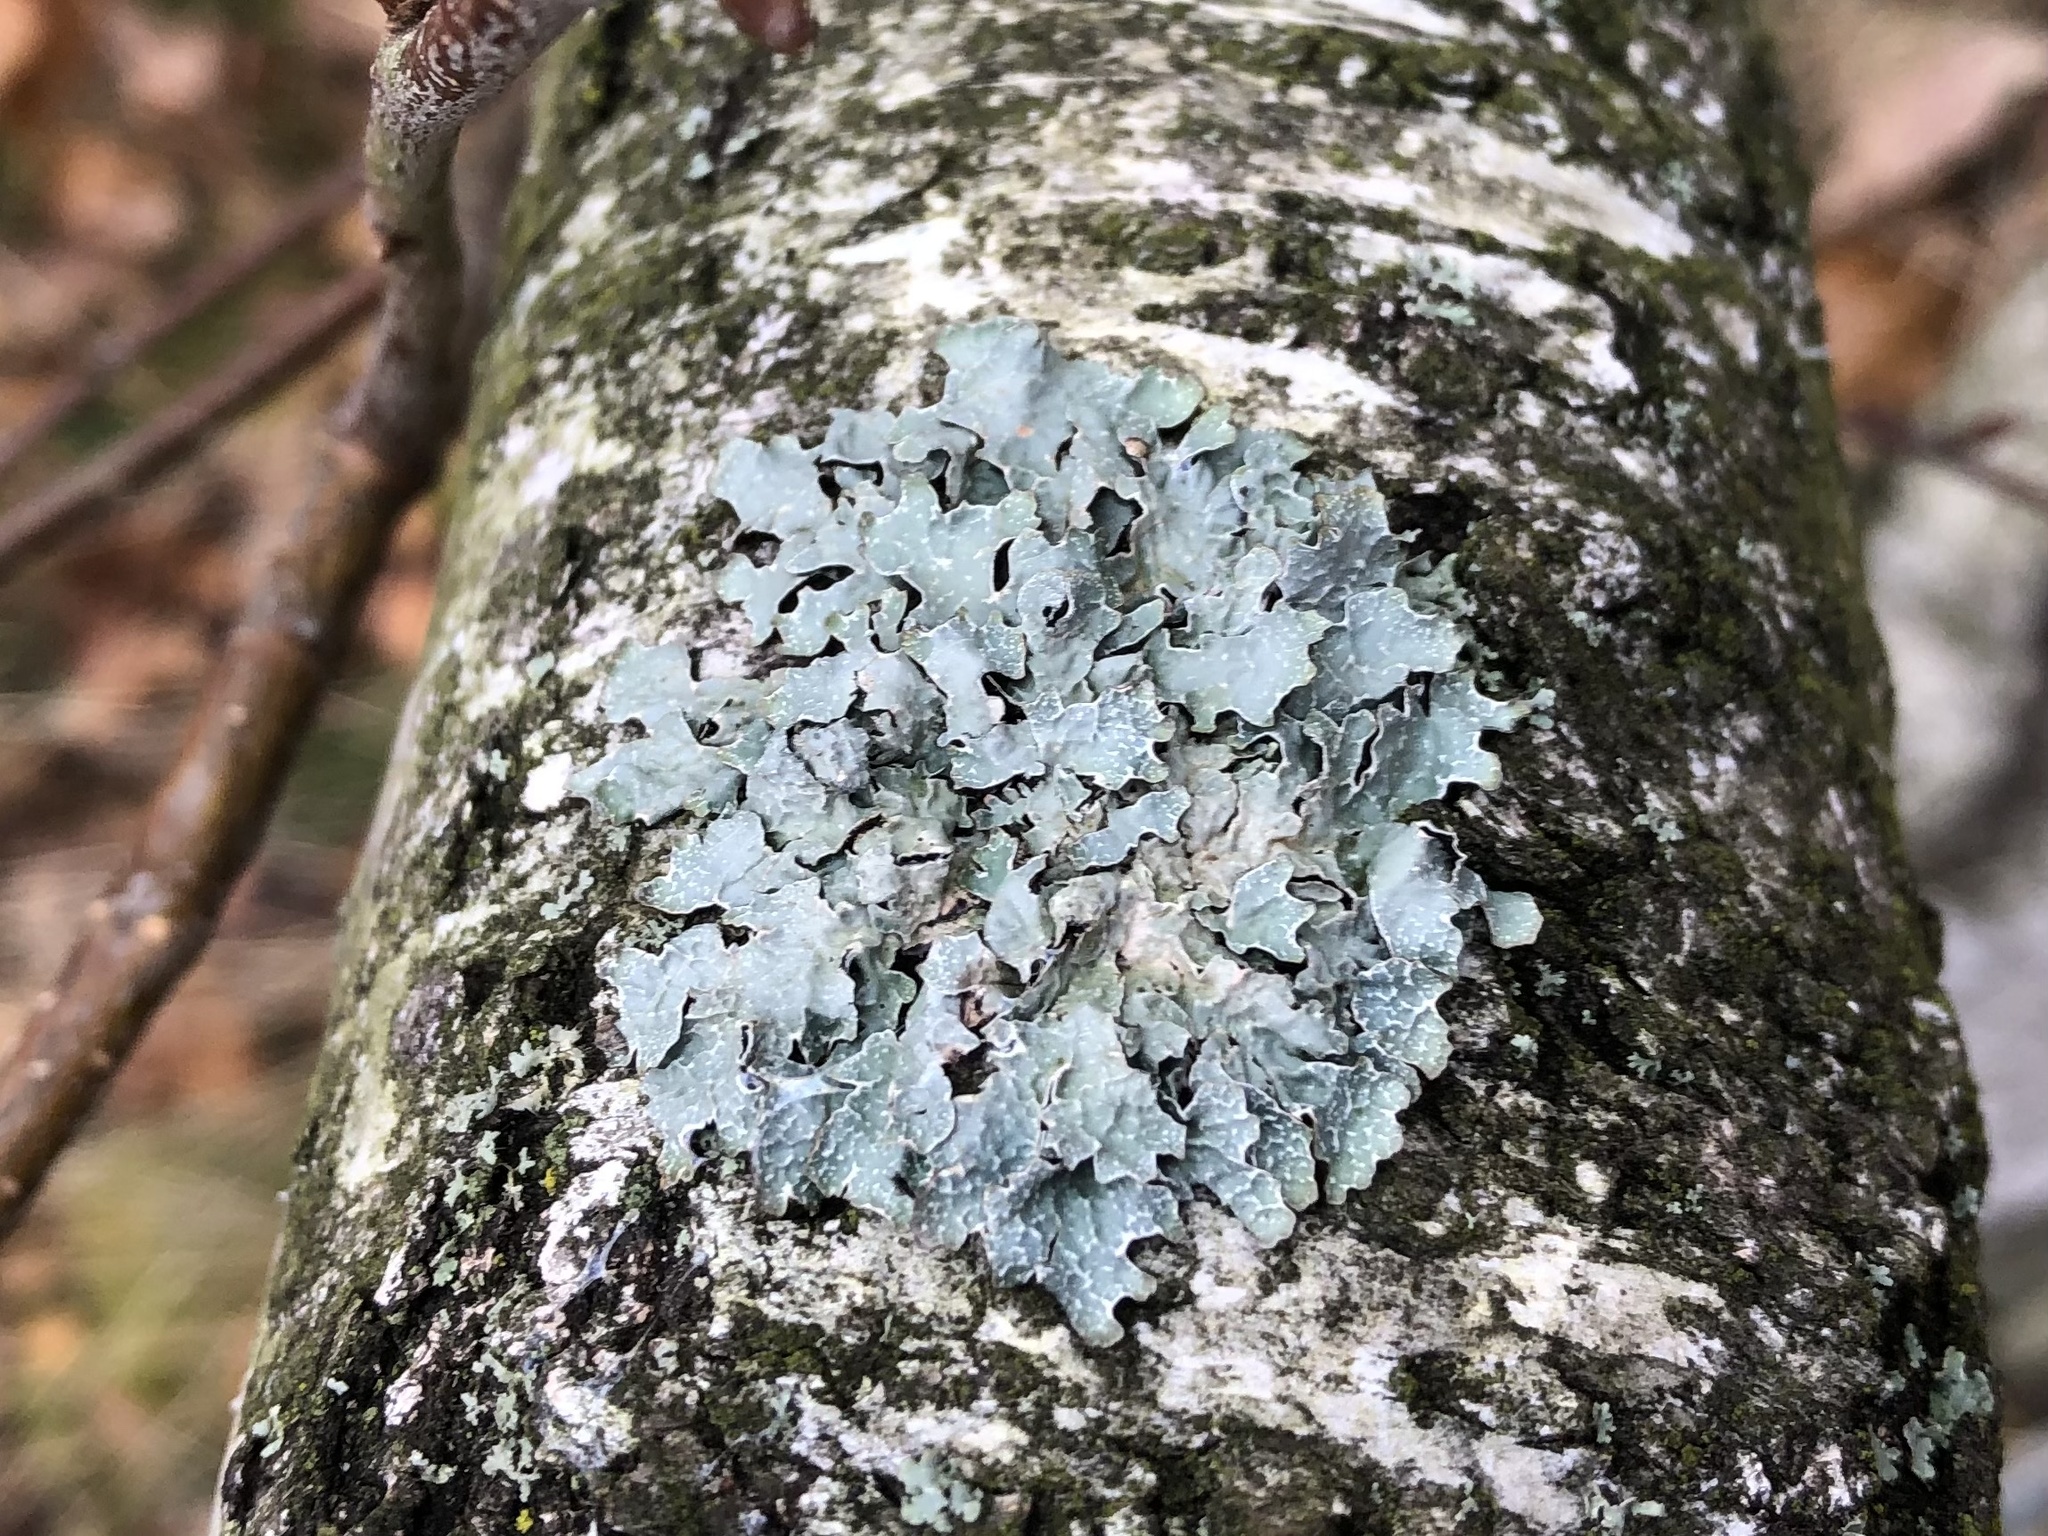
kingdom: Fungi
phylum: Ascomycota
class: Lecanoromycetes
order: Lecanorales
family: Parmeliaceae
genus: Parmelia
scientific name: Parmelia sulcata
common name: Netted shield lichen
